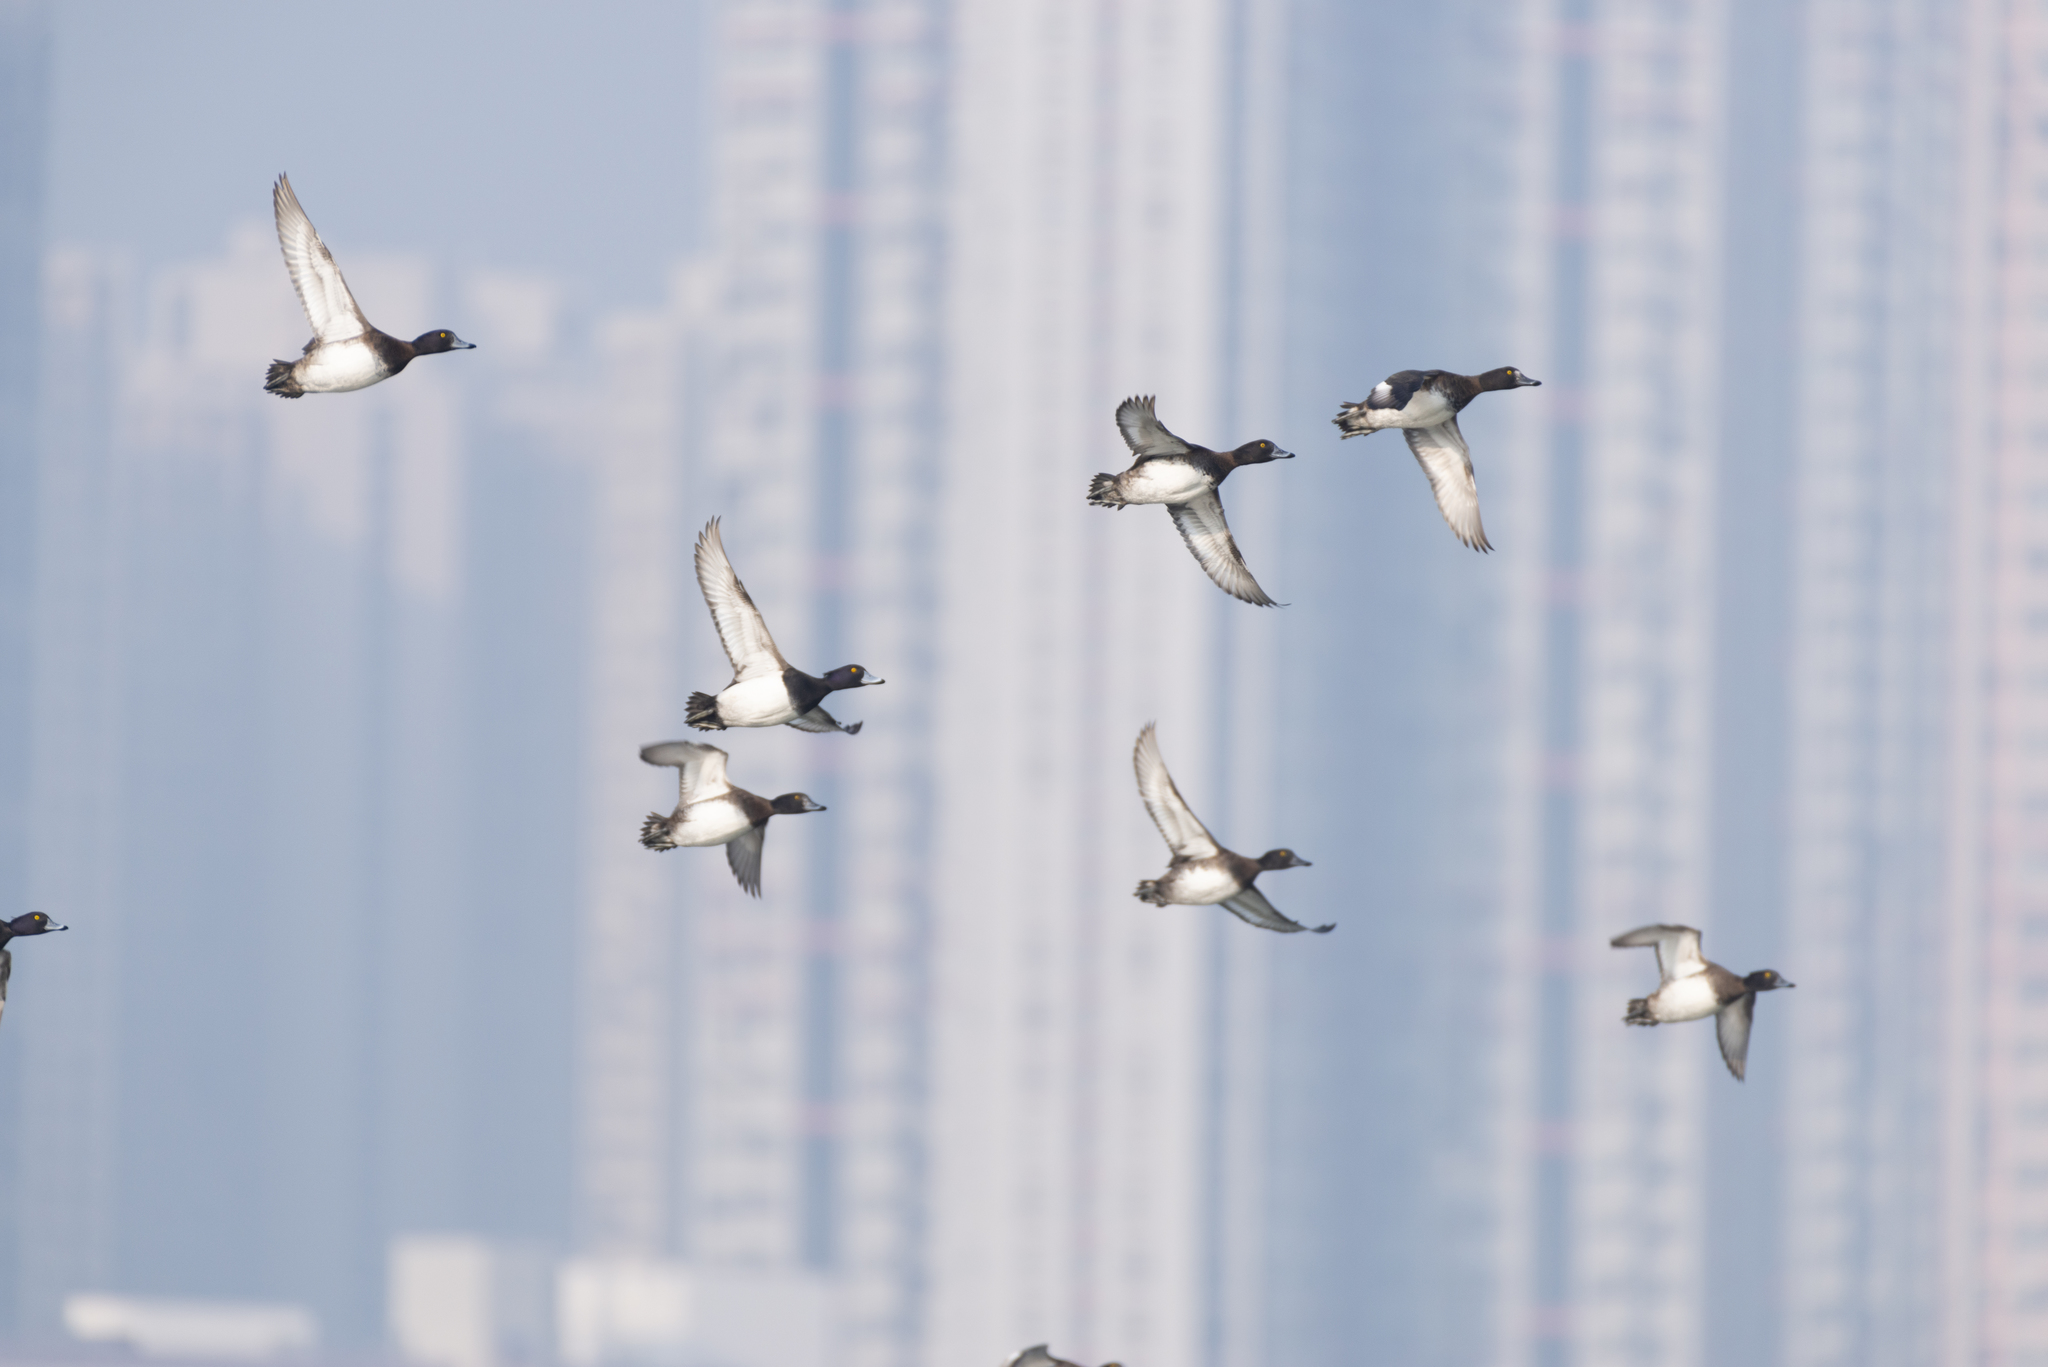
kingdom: Animalia
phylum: Chordata
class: Aves
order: Anseriformes
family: Anatidae
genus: Aythya
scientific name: Aythya fuligula
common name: Tufted duck
